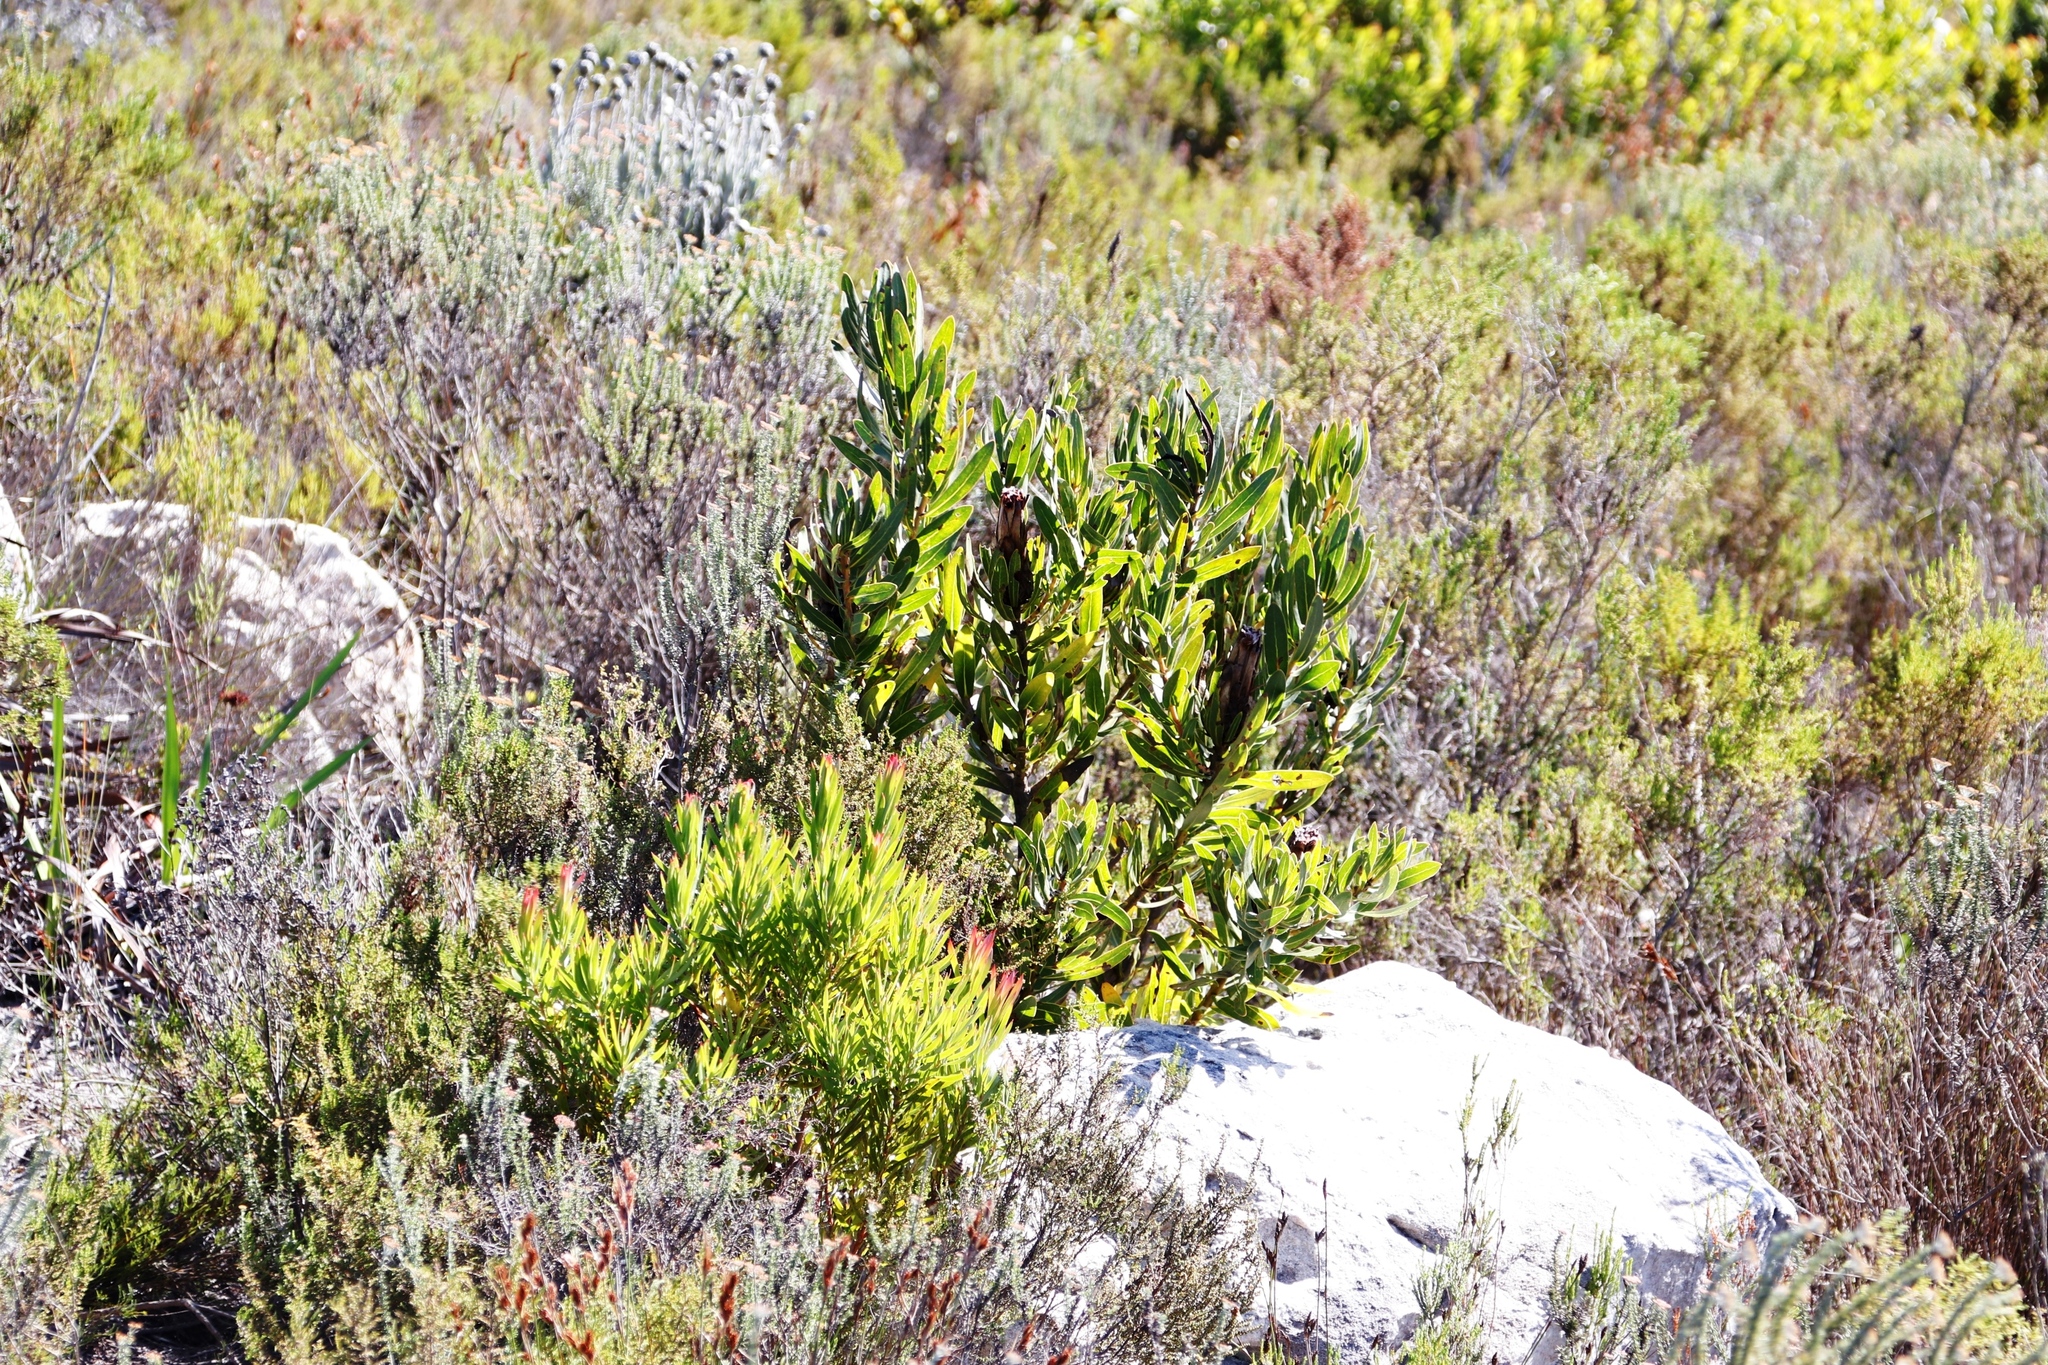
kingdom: Plantae
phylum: Tracheophyta
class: Magnoliopsida
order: Proteales
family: Proteaceae
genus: Protea
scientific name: Protea lepidocarpodendron
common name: Black-bearded protea
